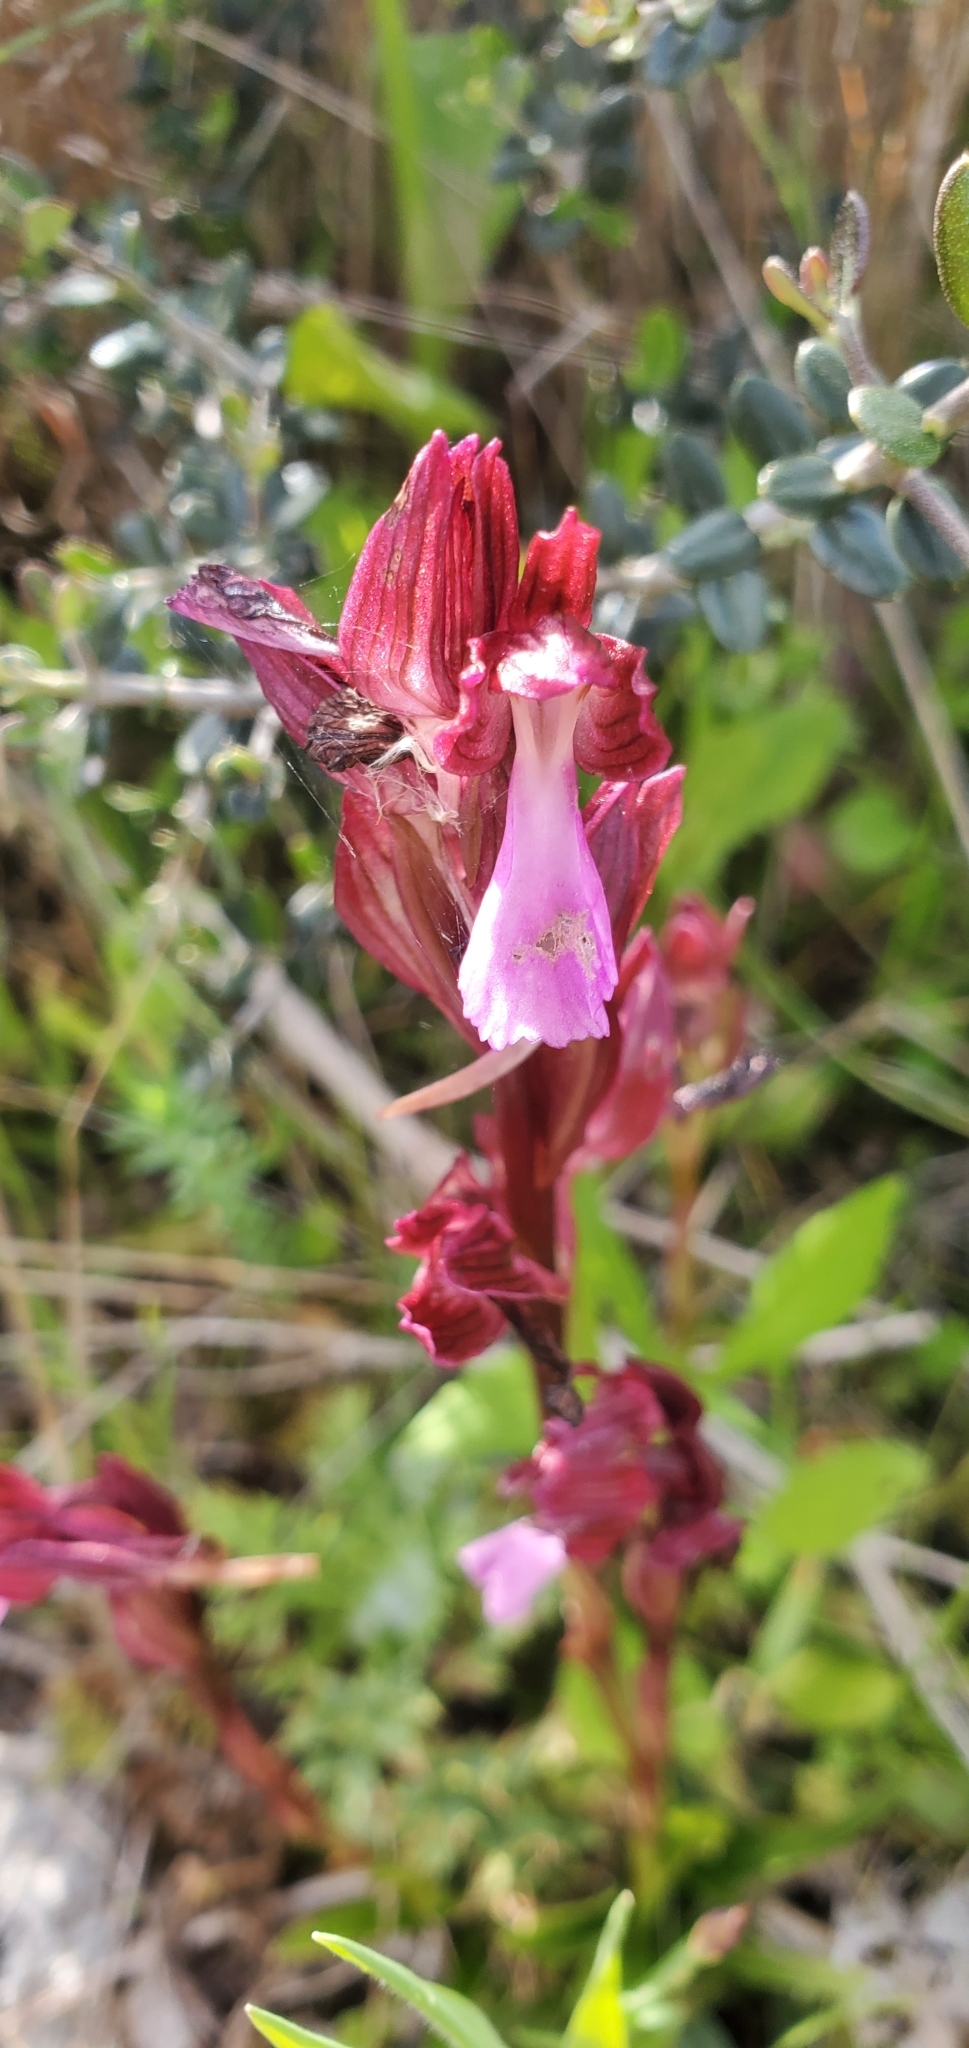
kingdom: Plantae
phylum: Tracheophyta
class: Liliopsida
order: Asparagales
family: Orchidaceae
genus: Anacamptis
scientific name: Anacamptis papilionacea
